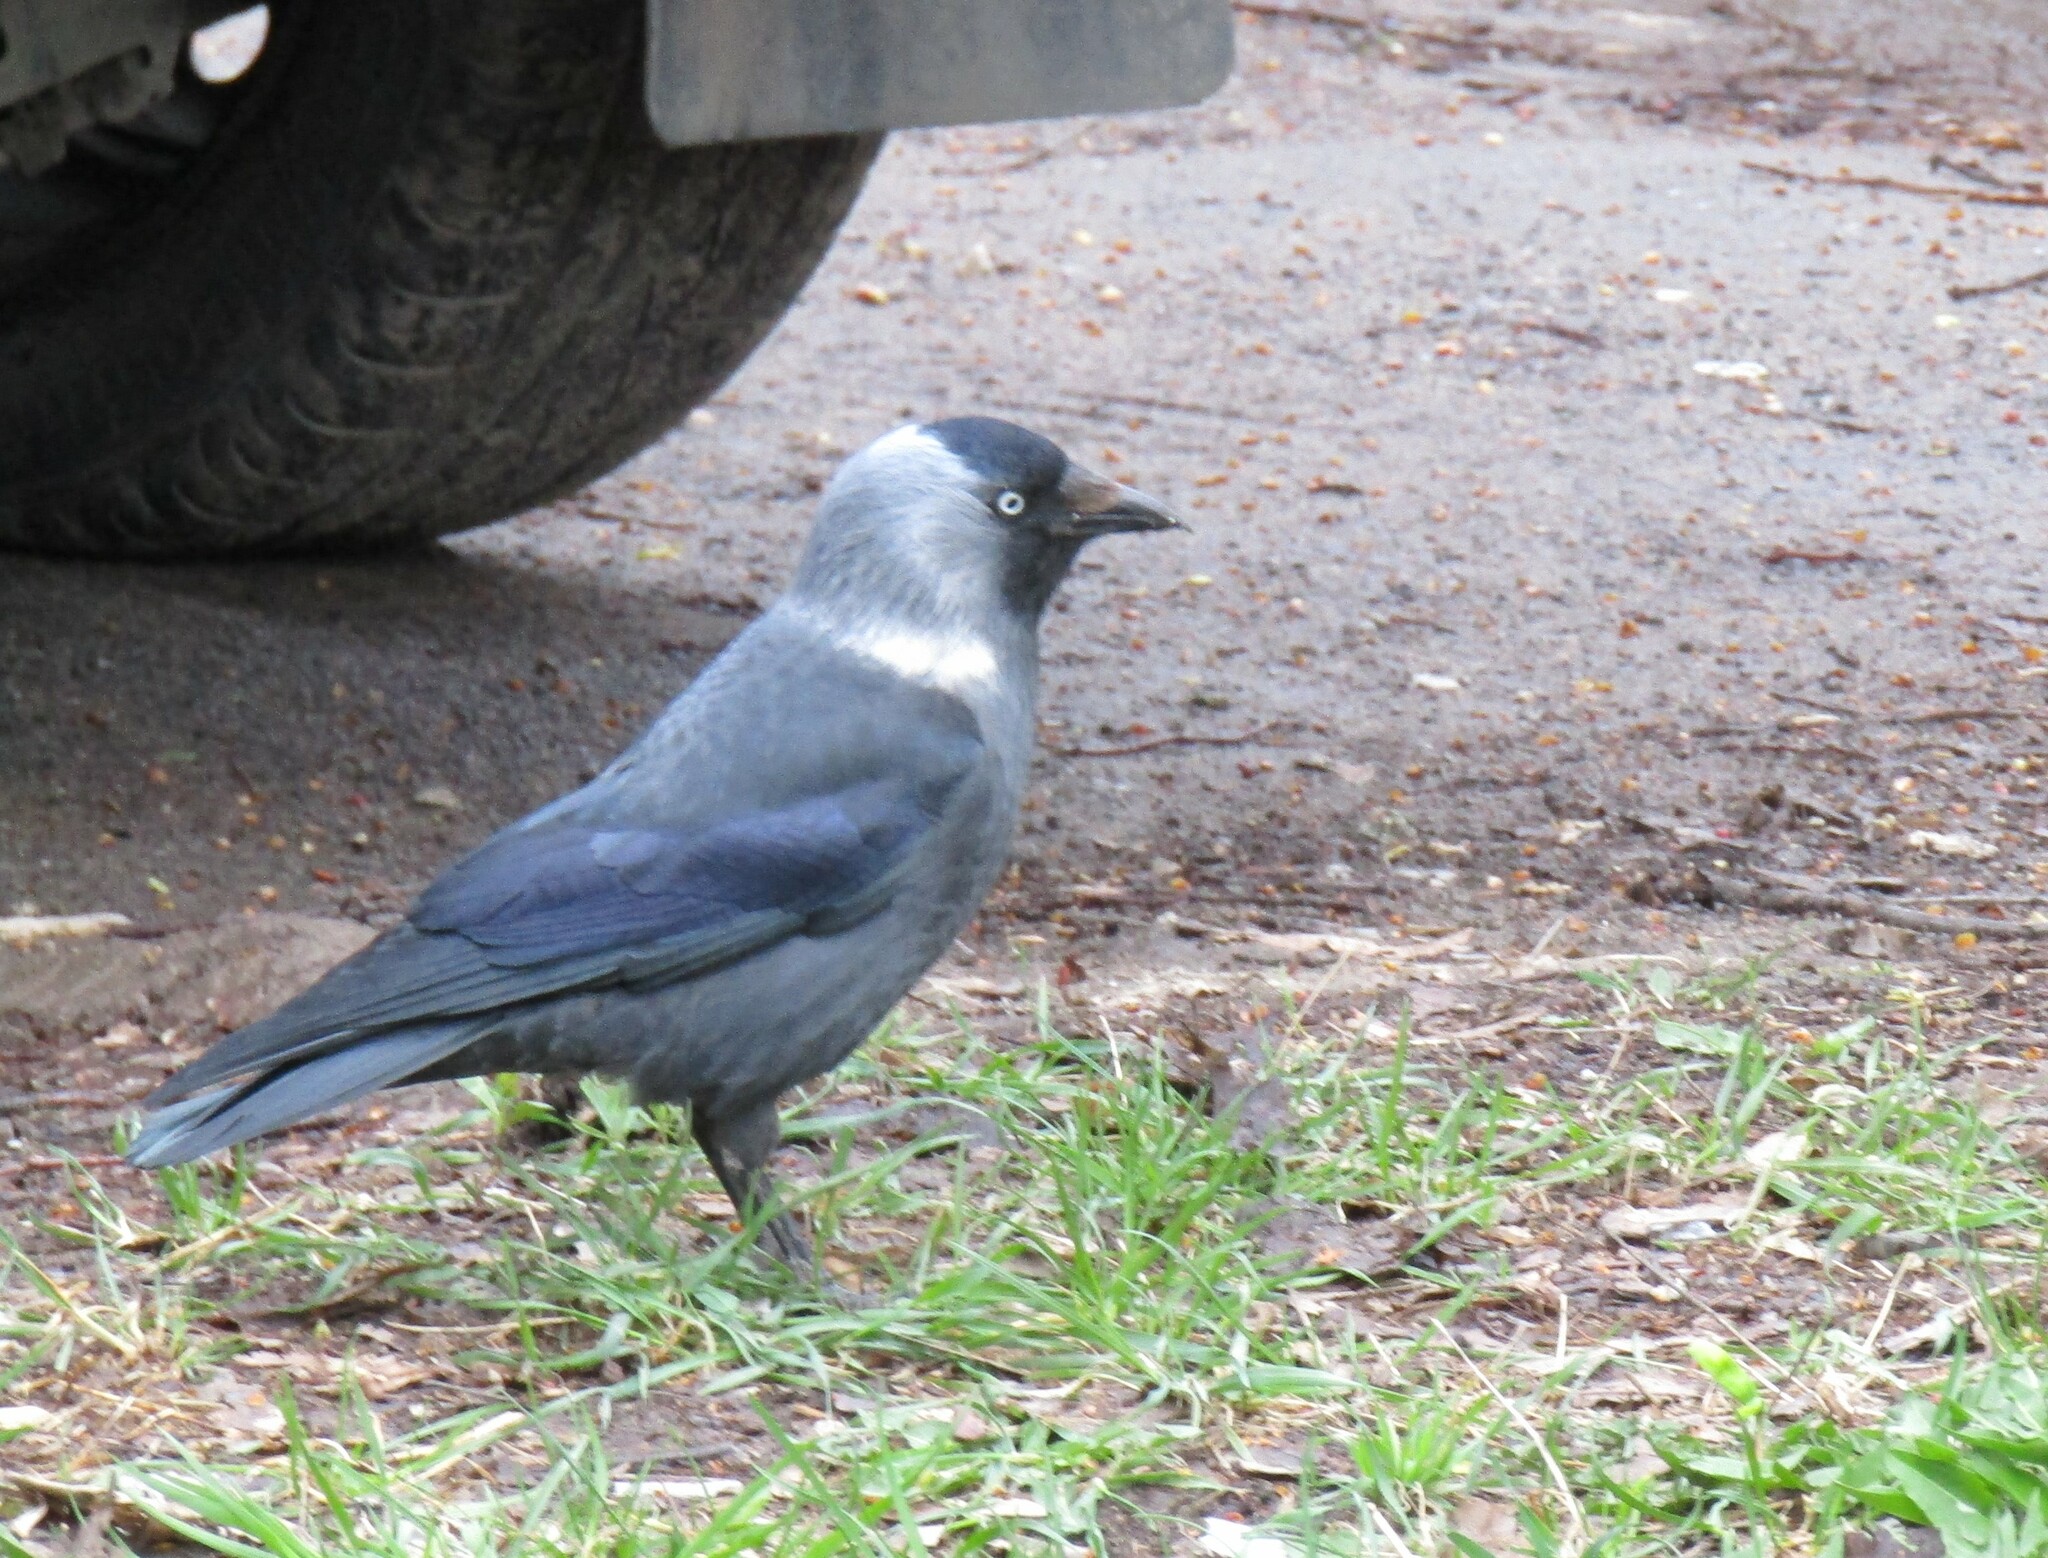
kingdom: Animalia
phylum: Chordata
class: Aves
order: Passeriformes
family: Corvidae
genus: Coloeus
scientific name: Coloeus monedula
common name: Western jackdaw
